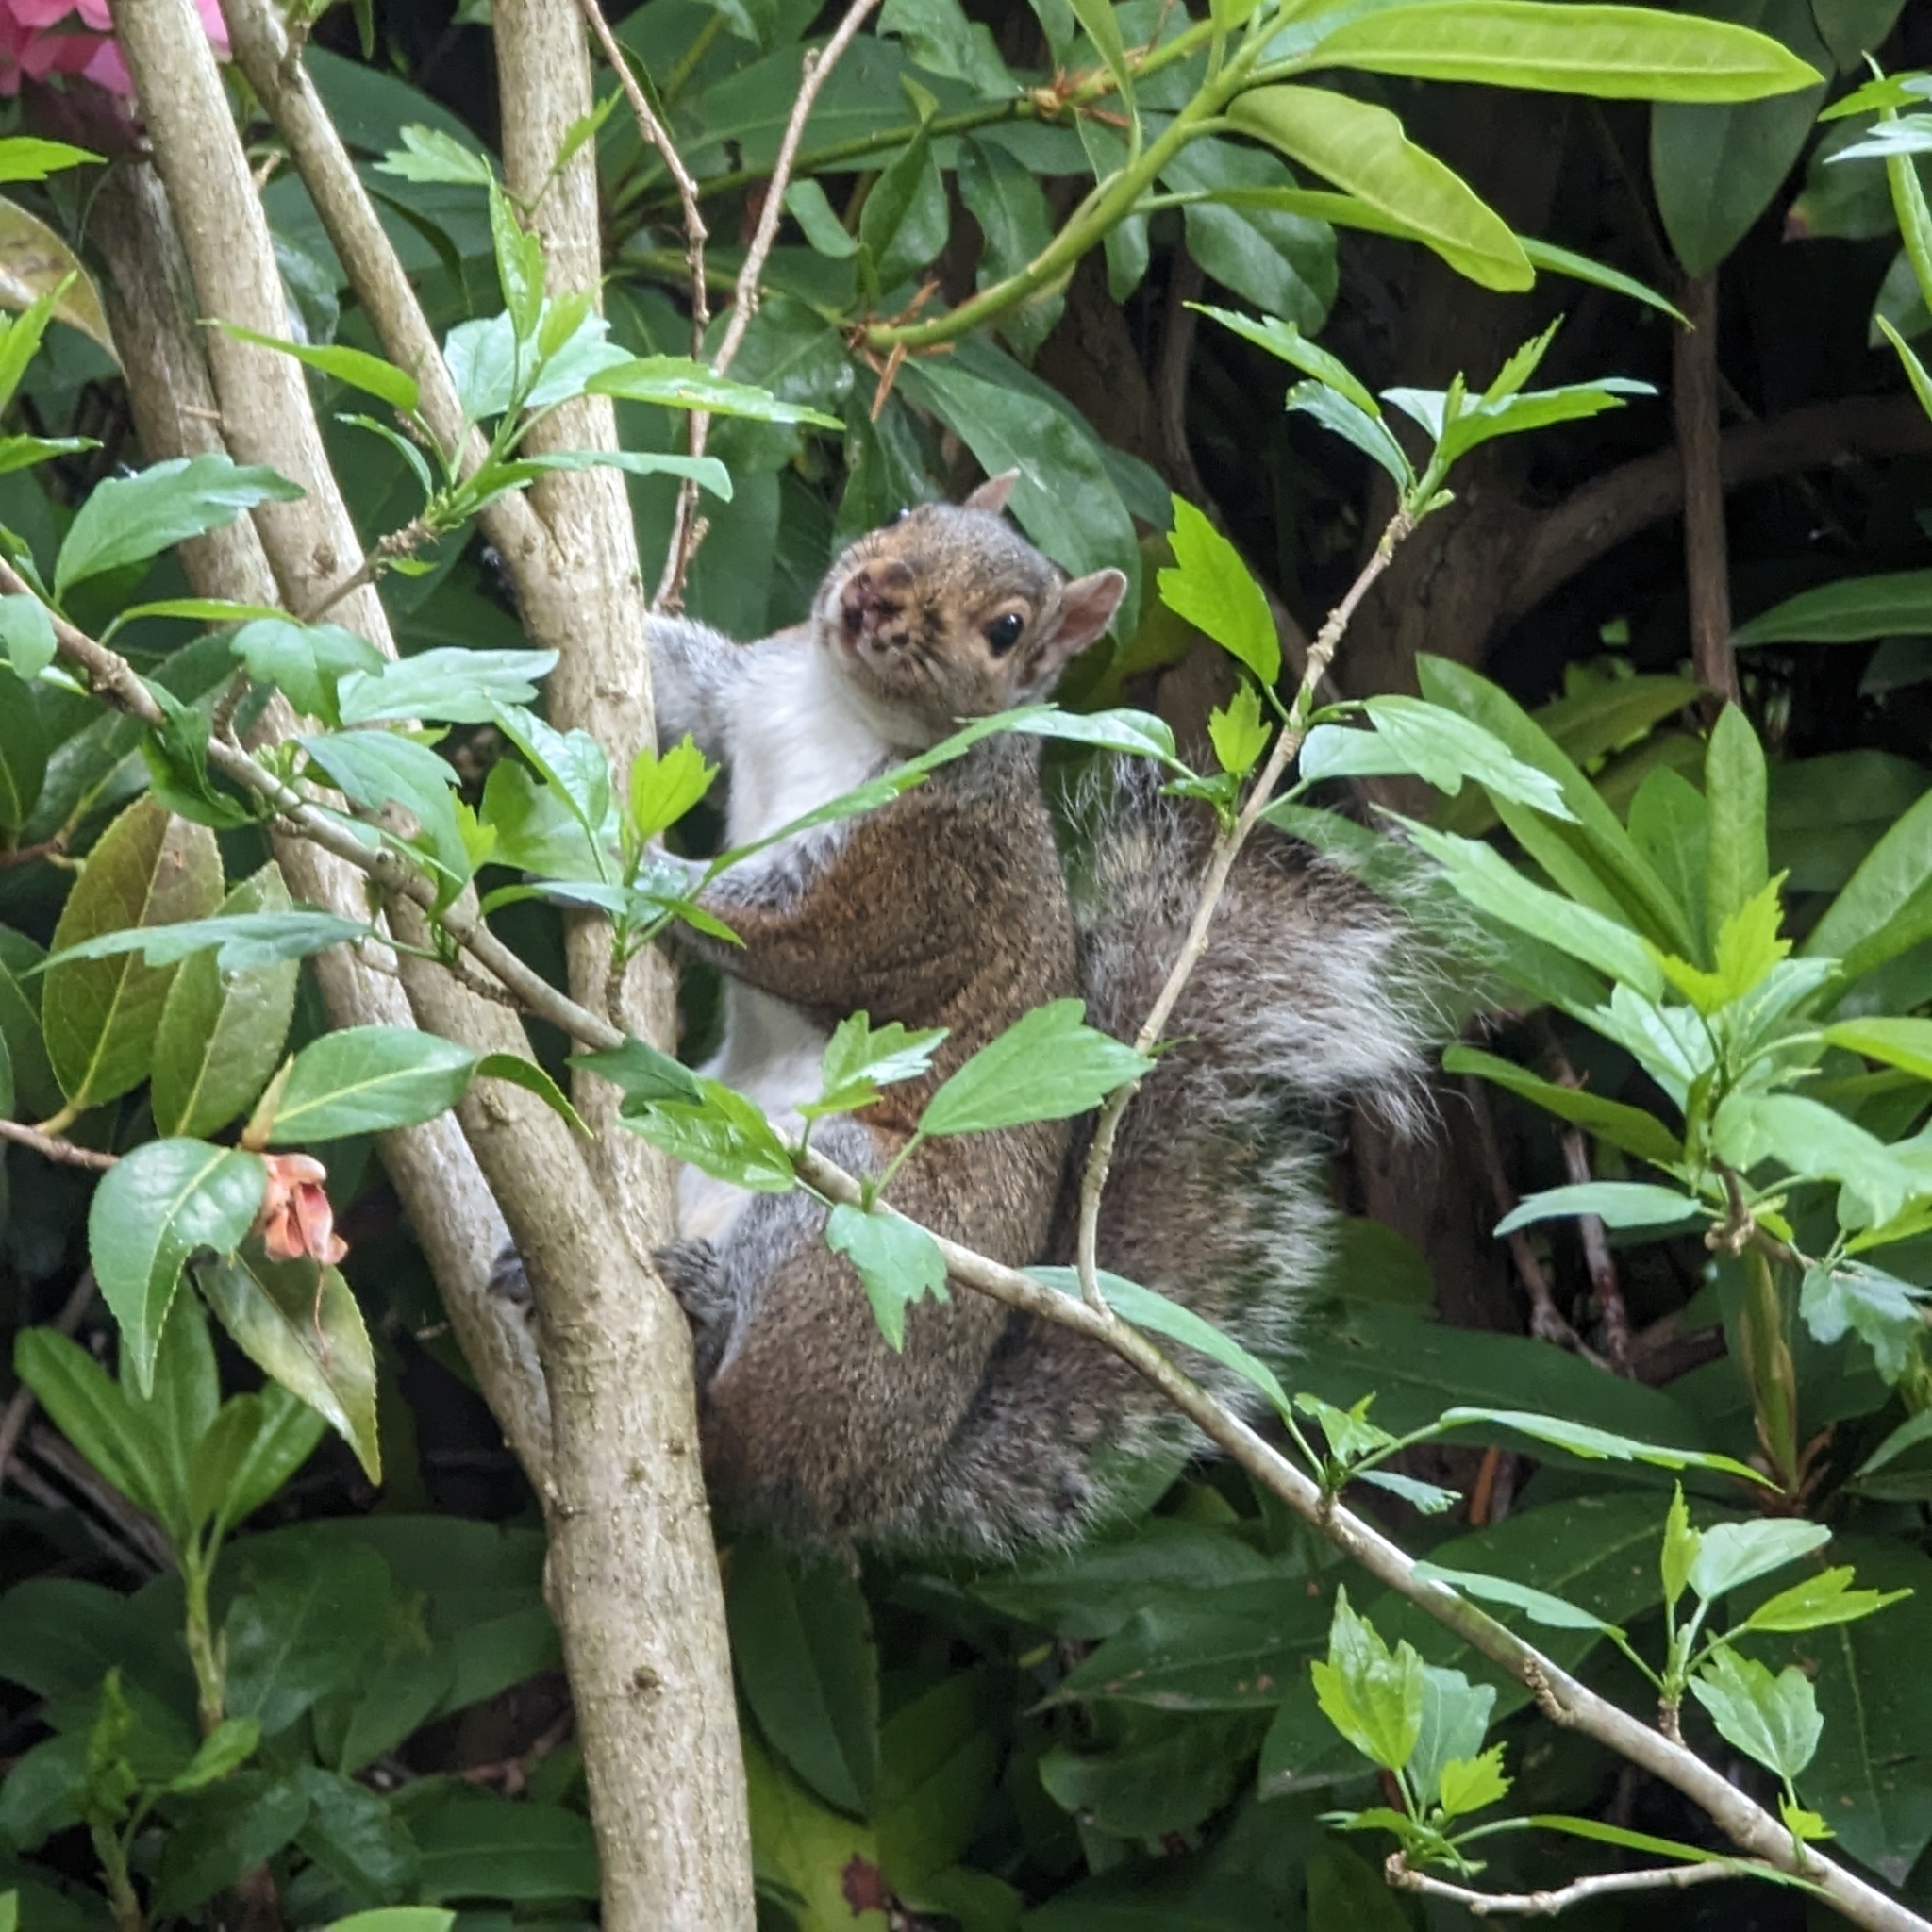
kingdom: Animalia
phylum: Chordata
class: Mammalia
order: Rodentia
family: Sciuridae
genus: Sciurus
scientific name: Sciurus carolinensis
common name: Eastern gray squirrel
